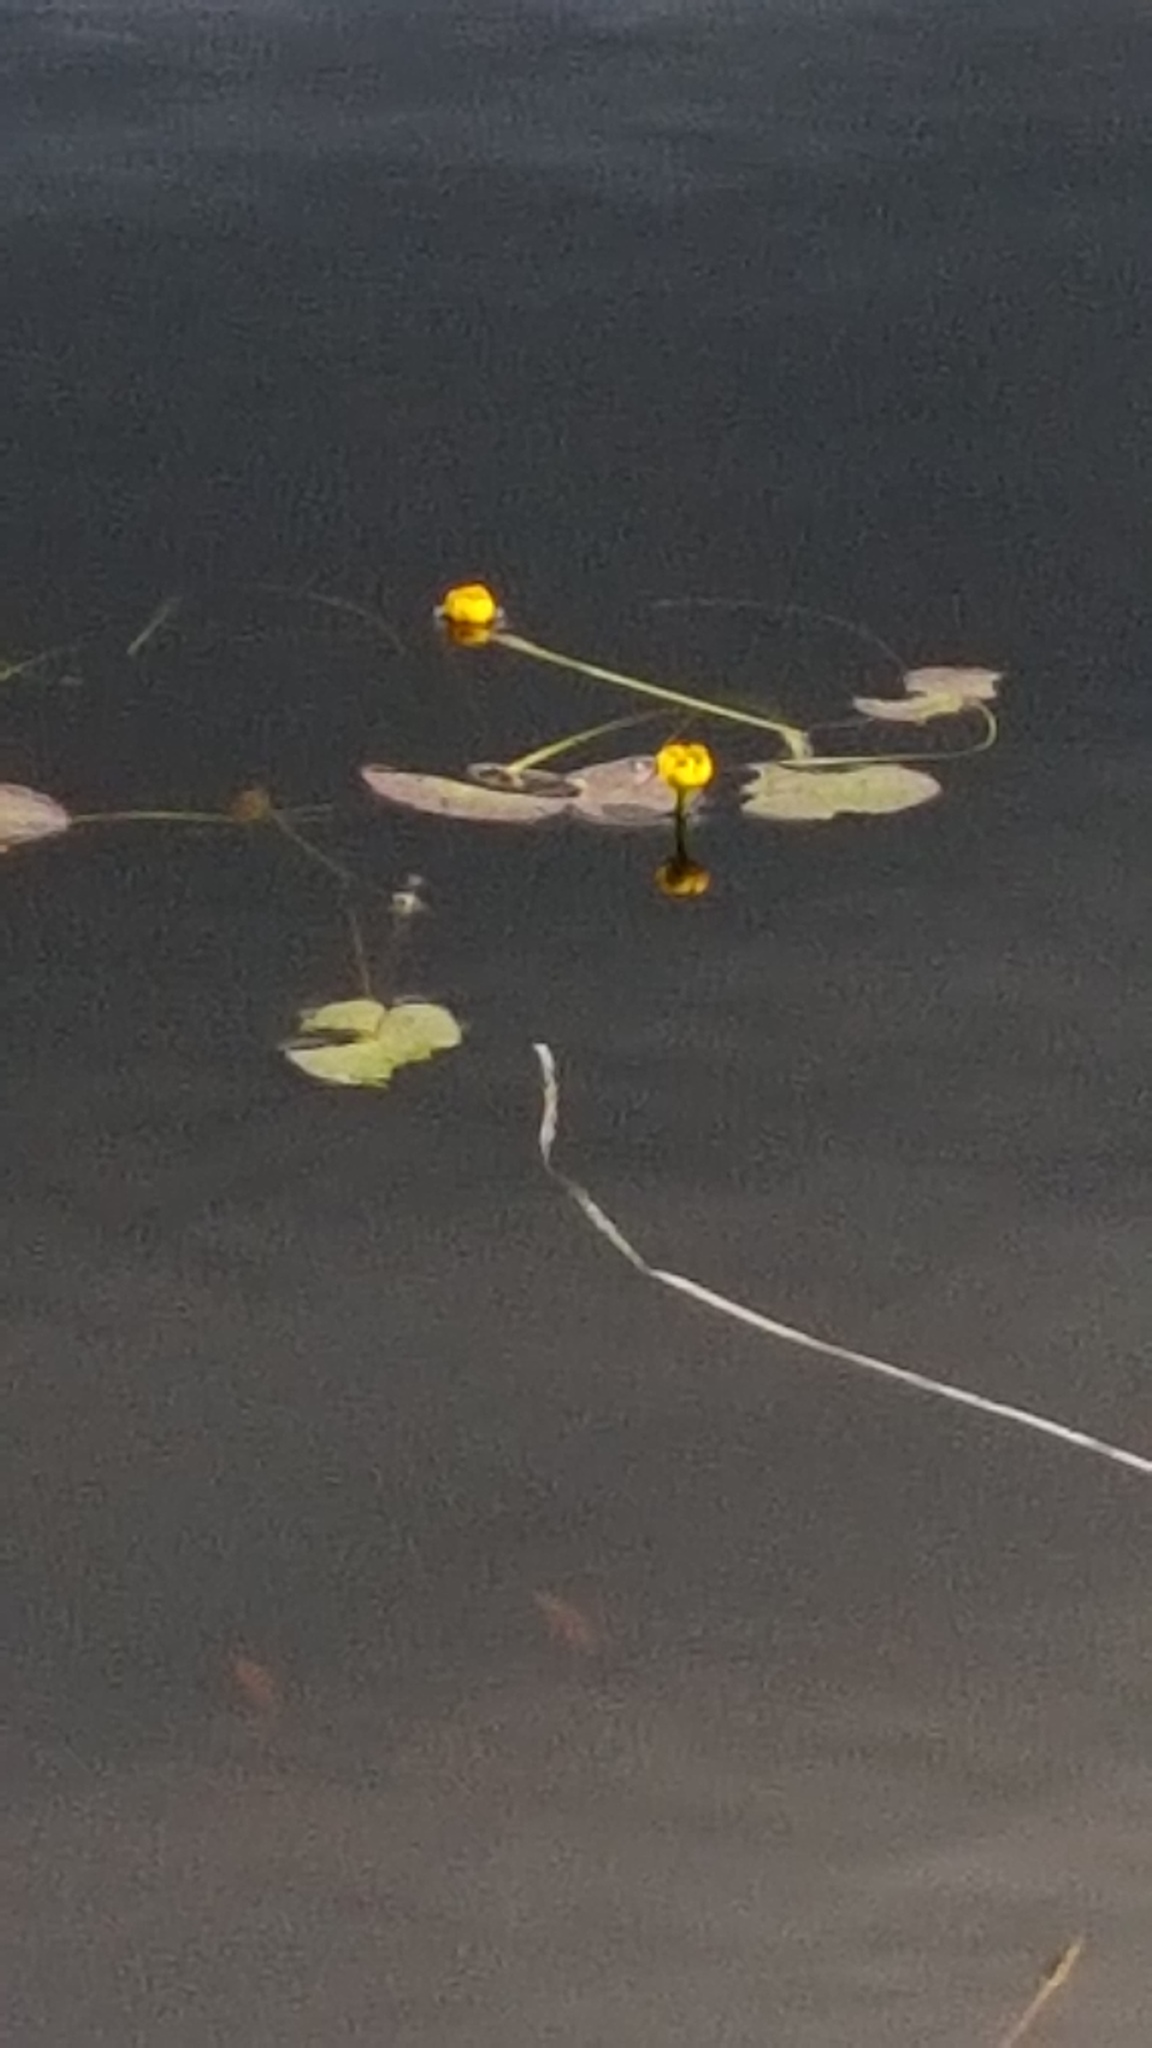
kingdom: Plantae
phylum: Tracheophyta
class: Magnoliopsida
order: Nymphaeales
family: Nymphaeaceae
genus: Nuphar
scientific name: Nuphar microphylla
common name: Small pond-lily
